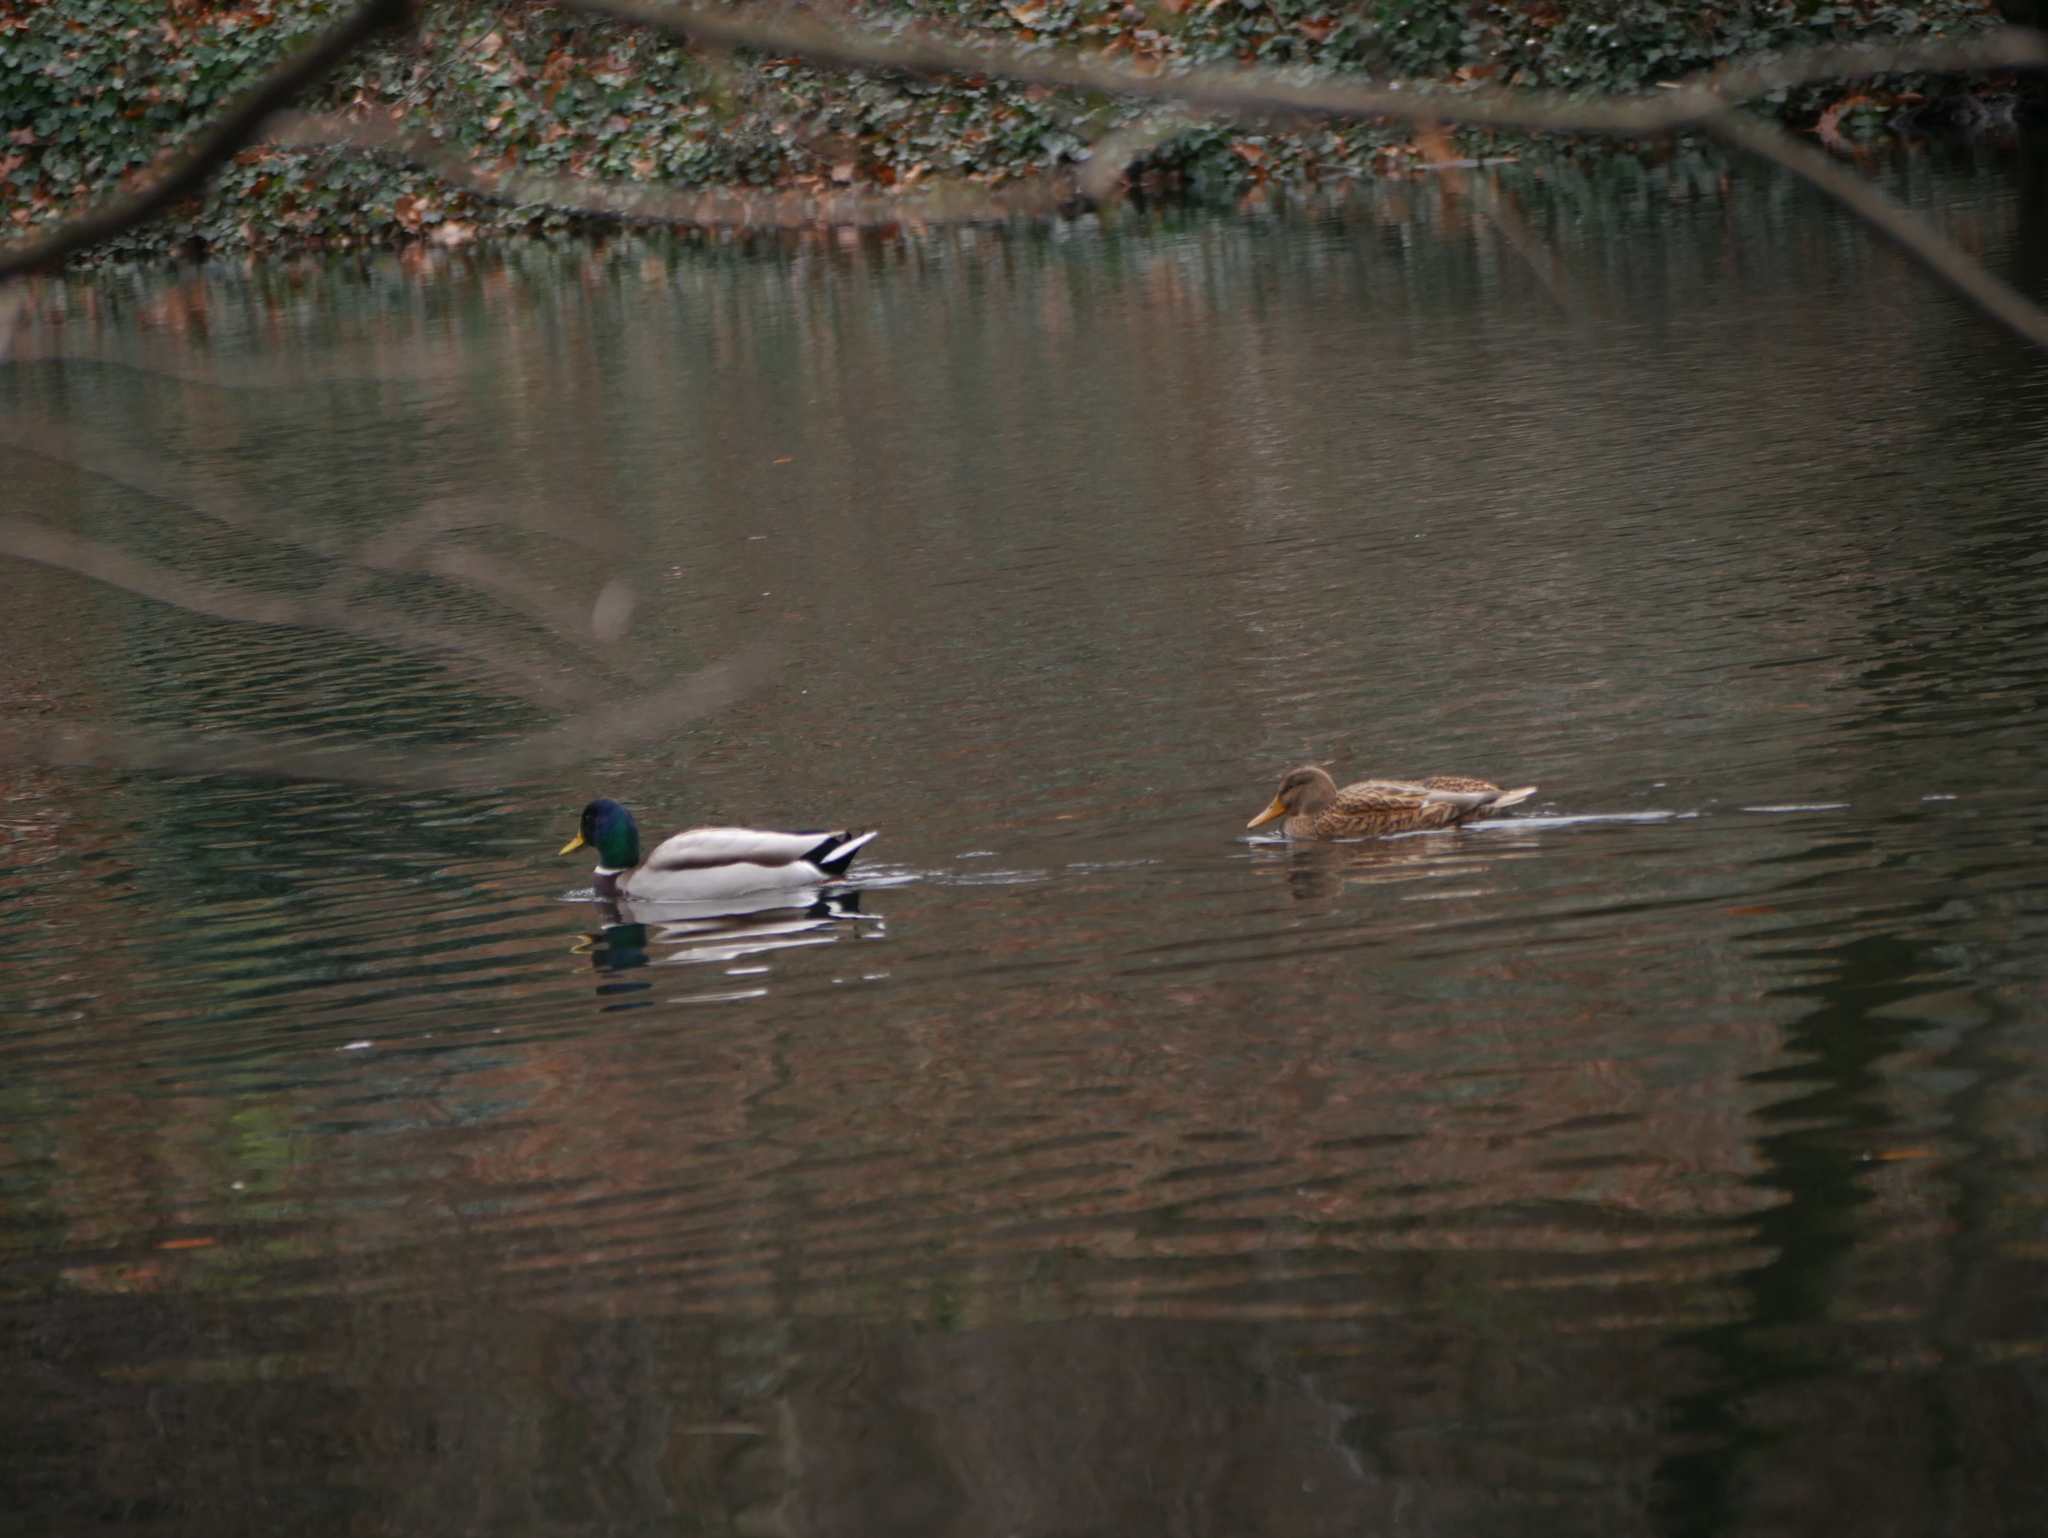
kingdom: Animalia
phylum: Chordata
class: Aves
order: Anseriformes
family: Anatidae
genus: Anas
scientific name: Anas platyrhynchos
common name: Mallard
